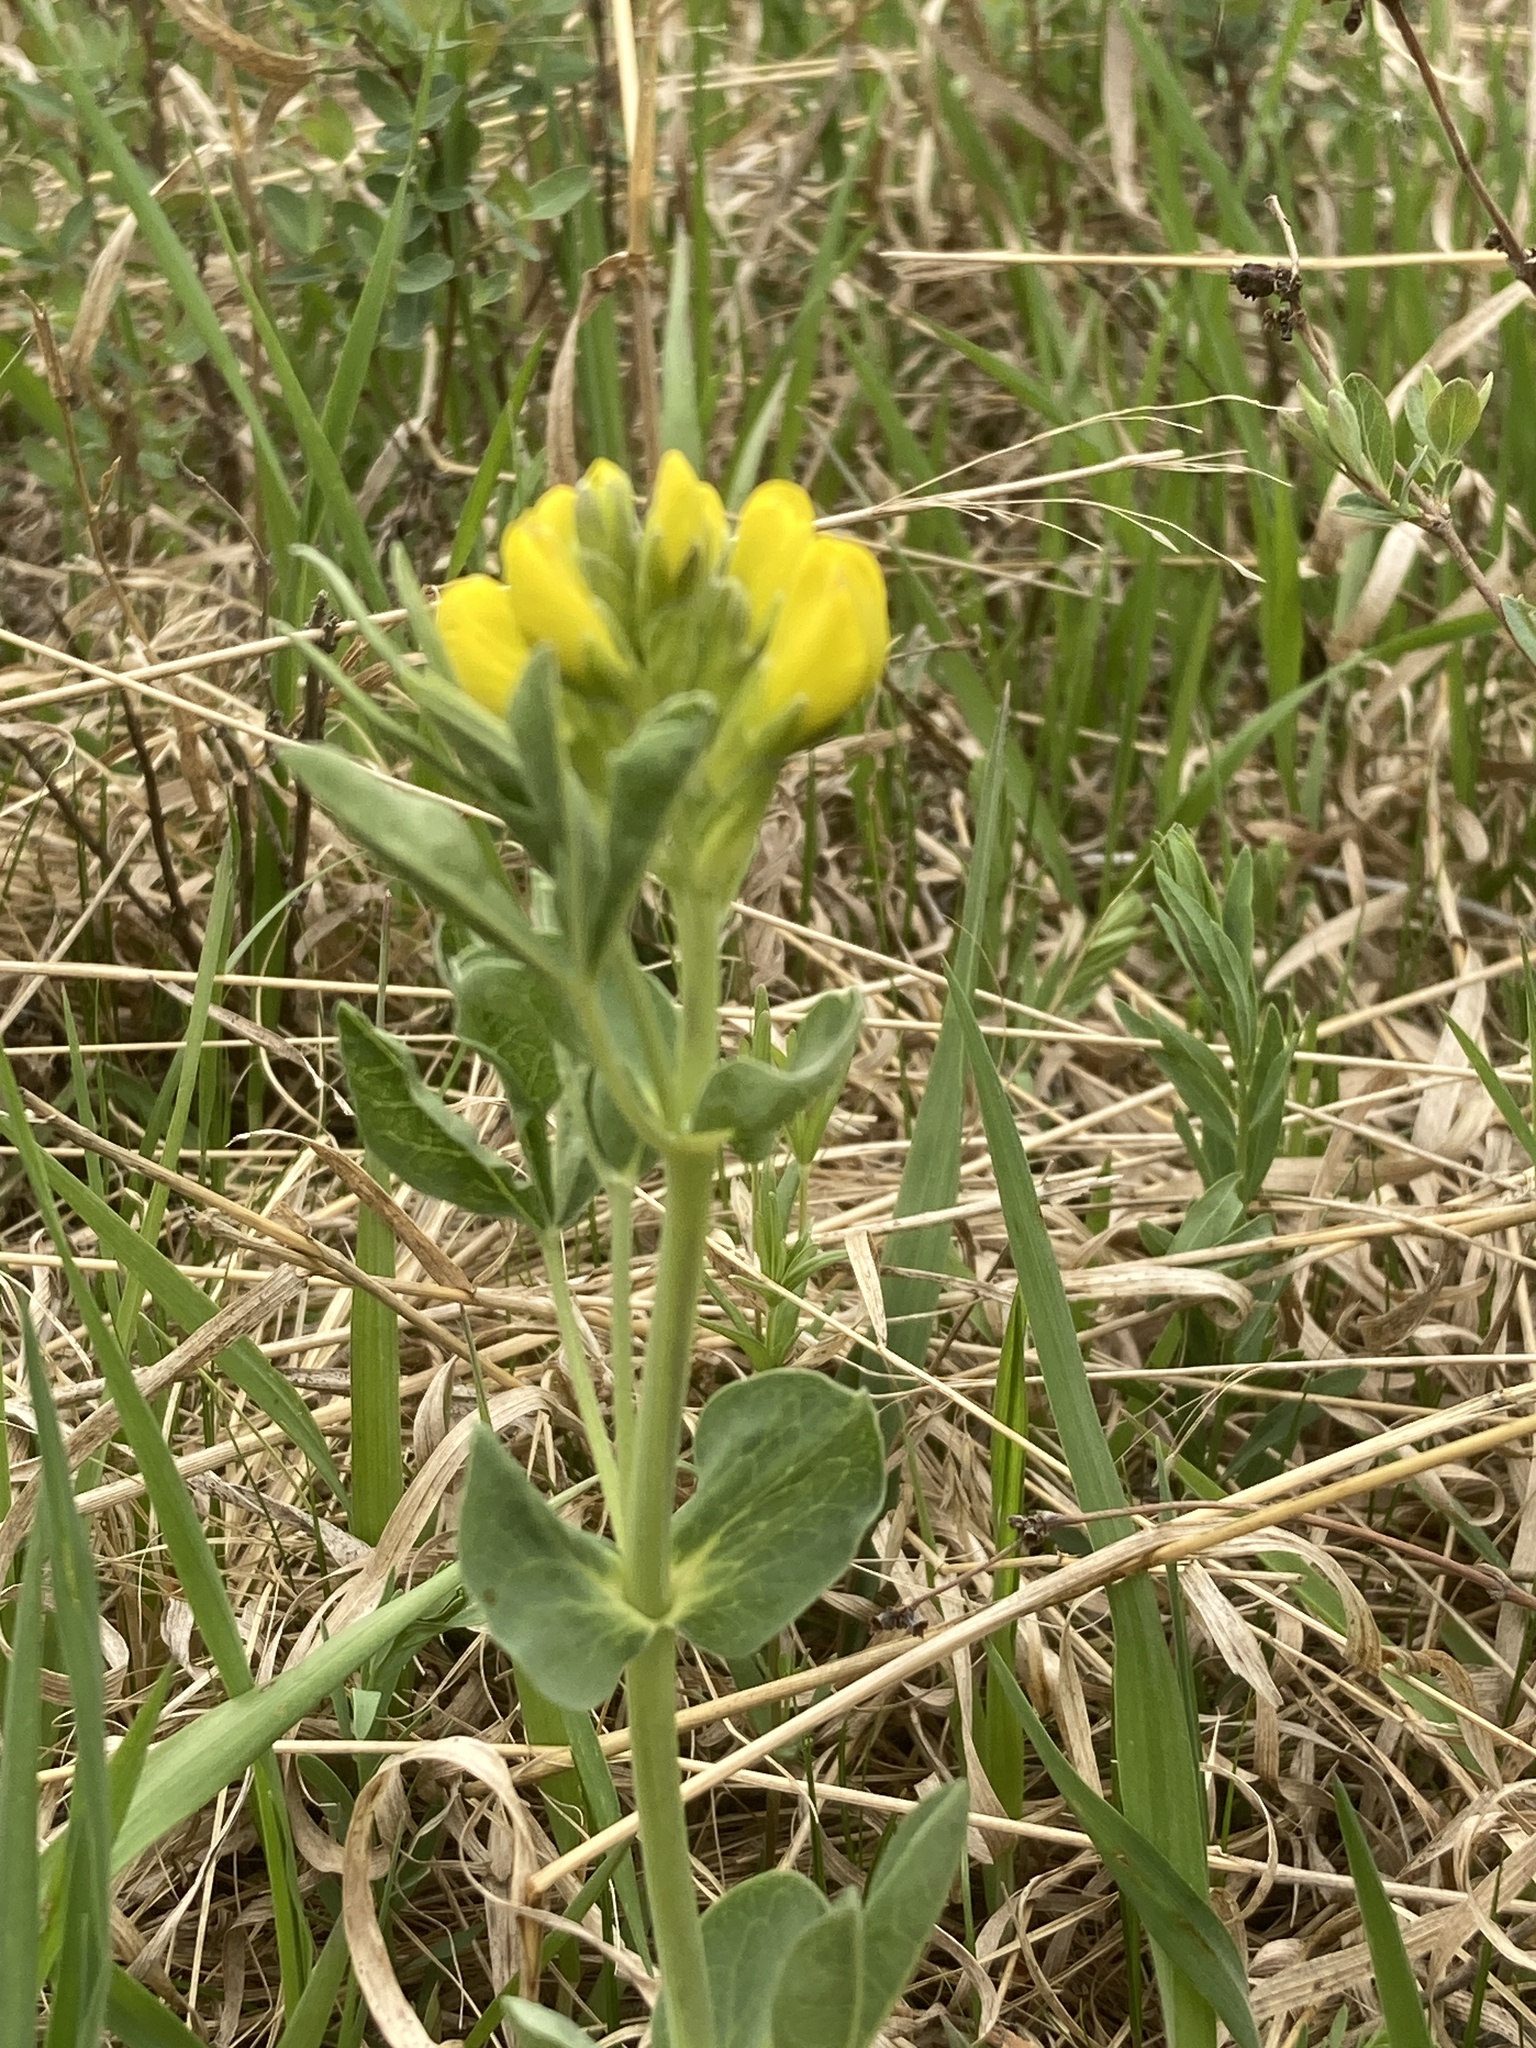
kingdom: Plantae
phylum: Tracheophyta
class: Magnoliopsida
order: Fabales
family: Fabaceae
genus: Thermopsis
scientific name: Thermopsis rhombifolia
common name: Circle-pod-pea
